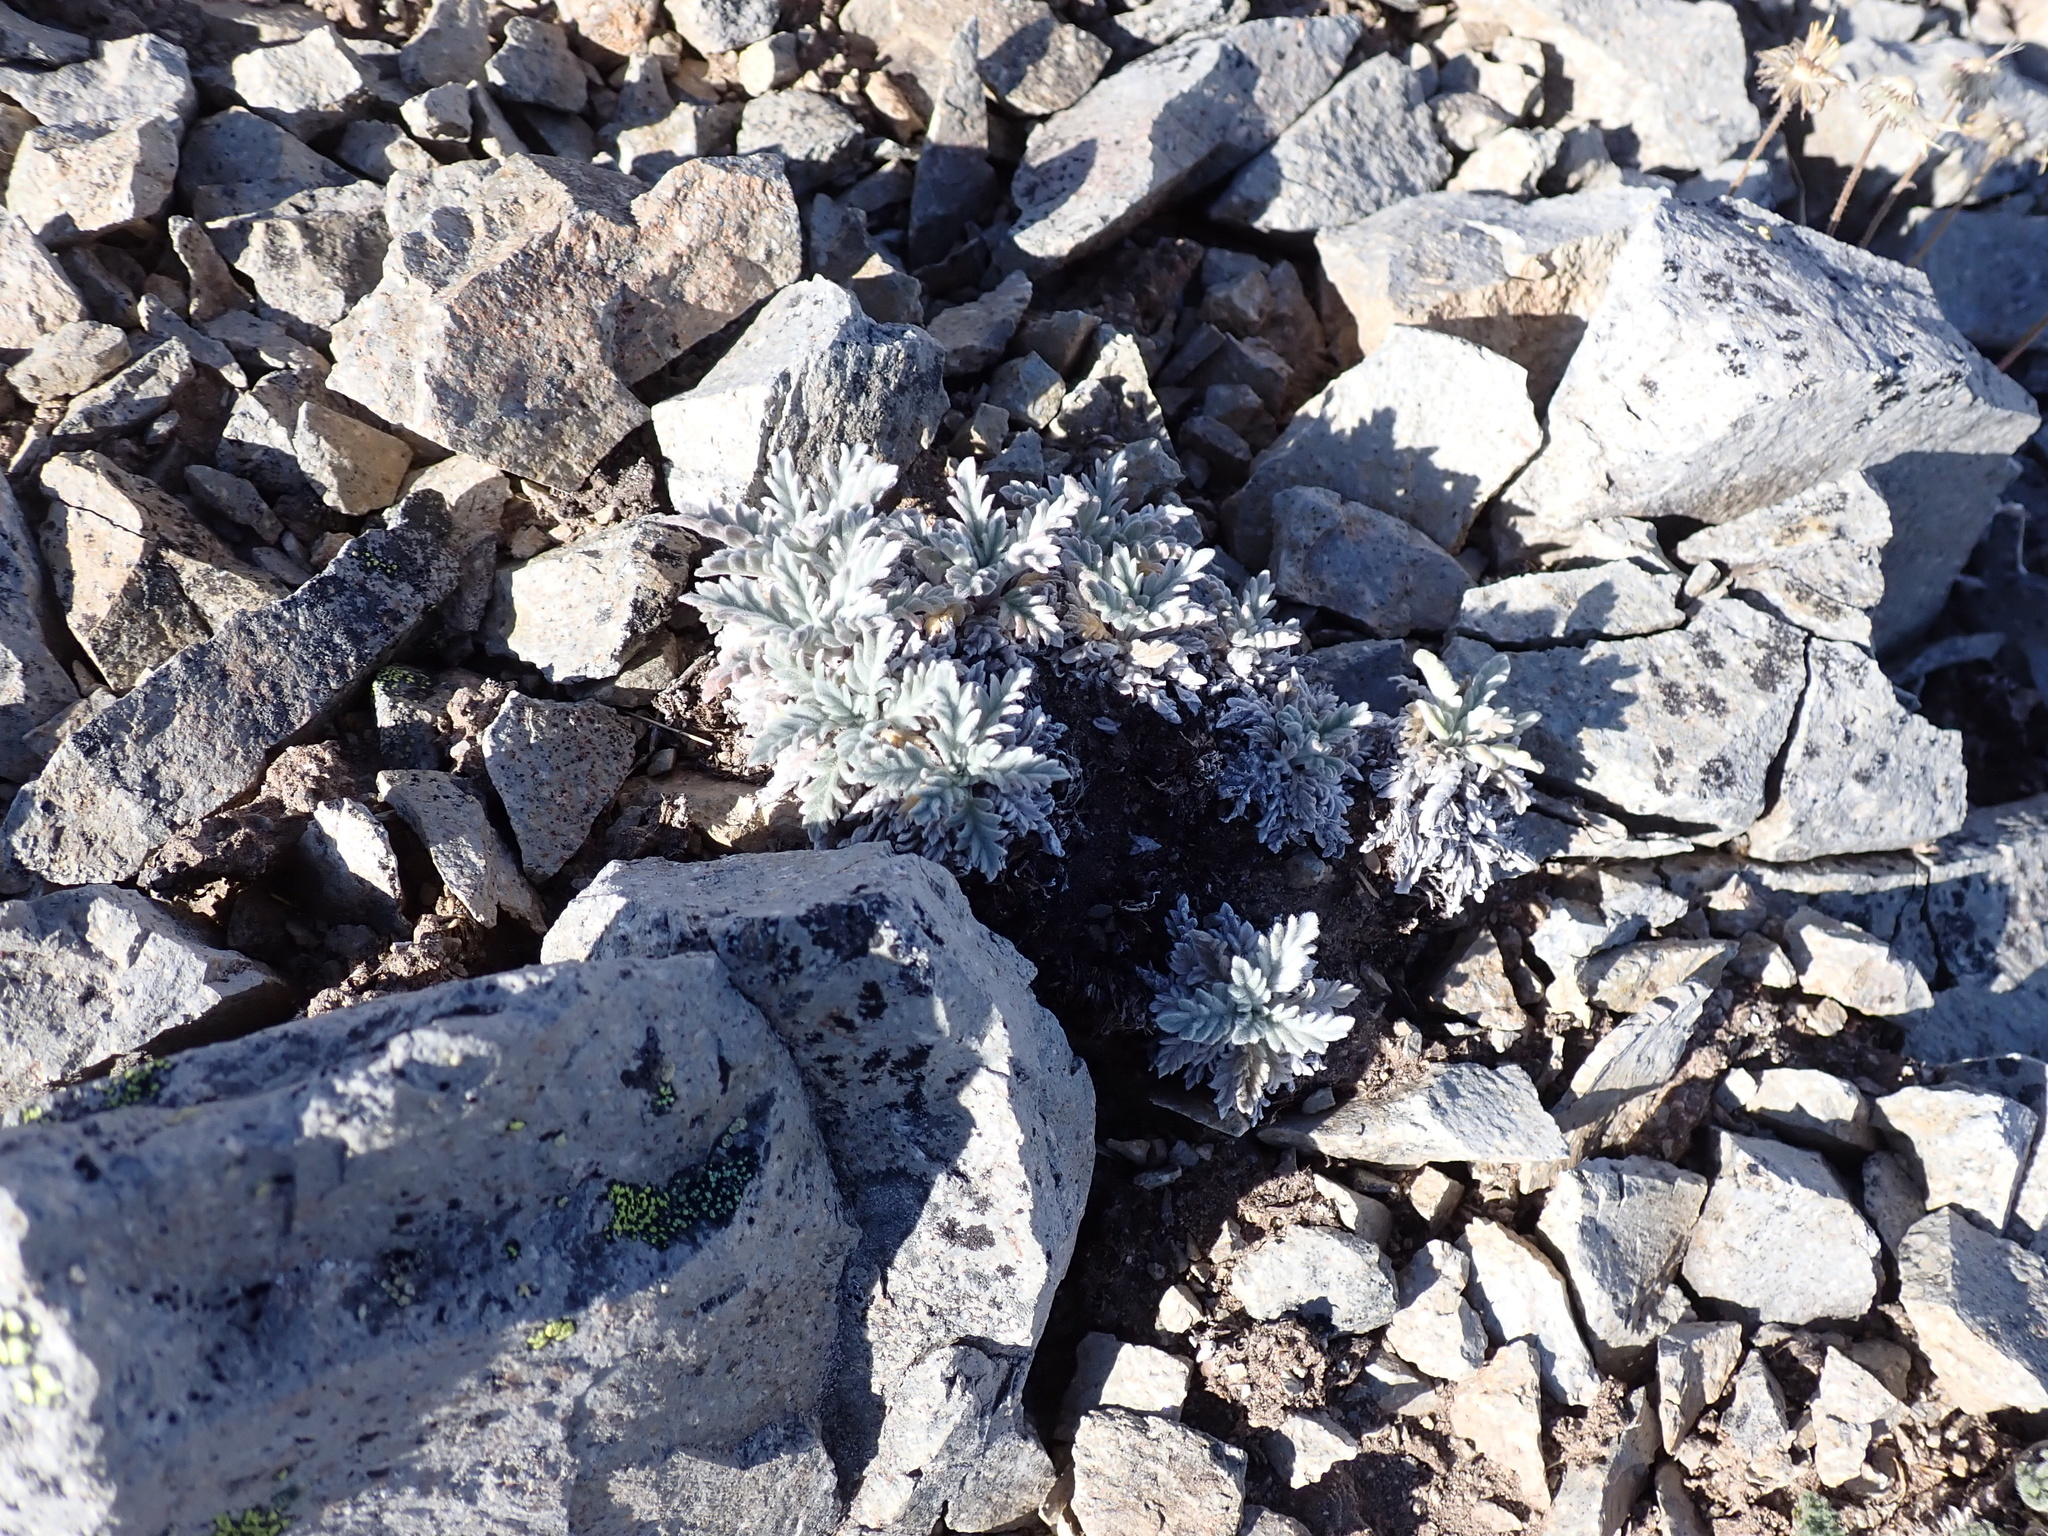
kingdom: Plantae
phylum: Tracheophyta
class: Magnoliopsida
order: Boraginales
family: Hydrophyllaceae
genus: Phacelia
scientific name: Phacelia sericea
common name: Silky phacelia
